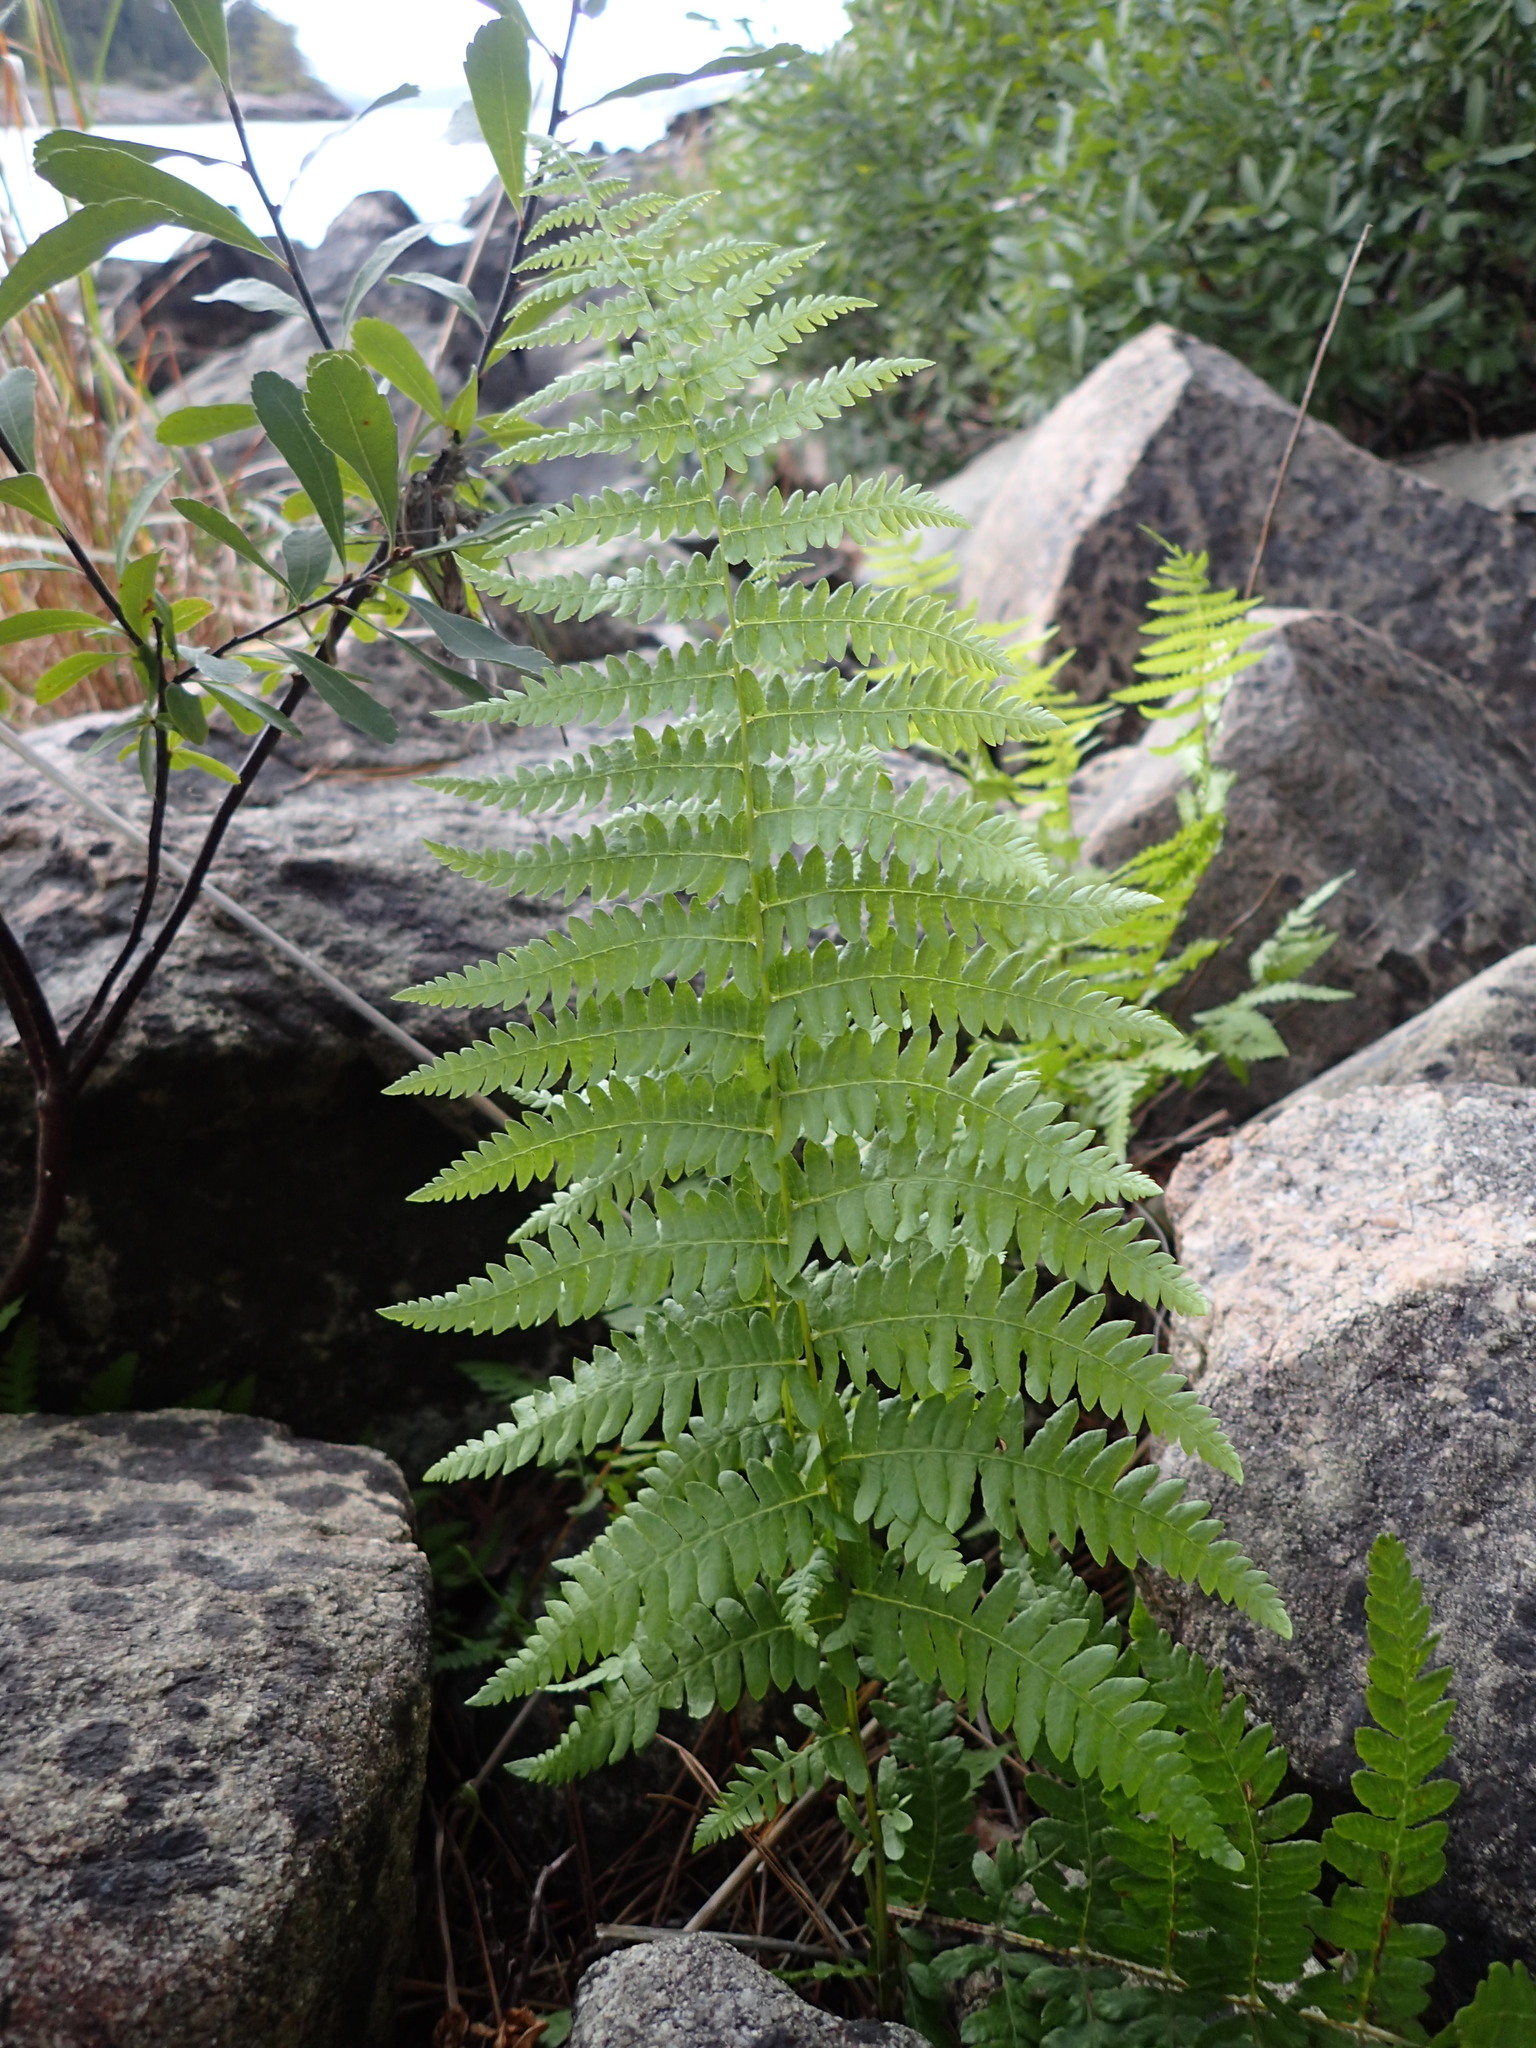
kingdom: Plantae
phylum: Tracheophyta
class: Polypodiopsida
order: Polypodiales
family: Thelypteridaceae
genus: Thelypteris
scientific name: Thelypteris palustris
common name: Marsh fern
